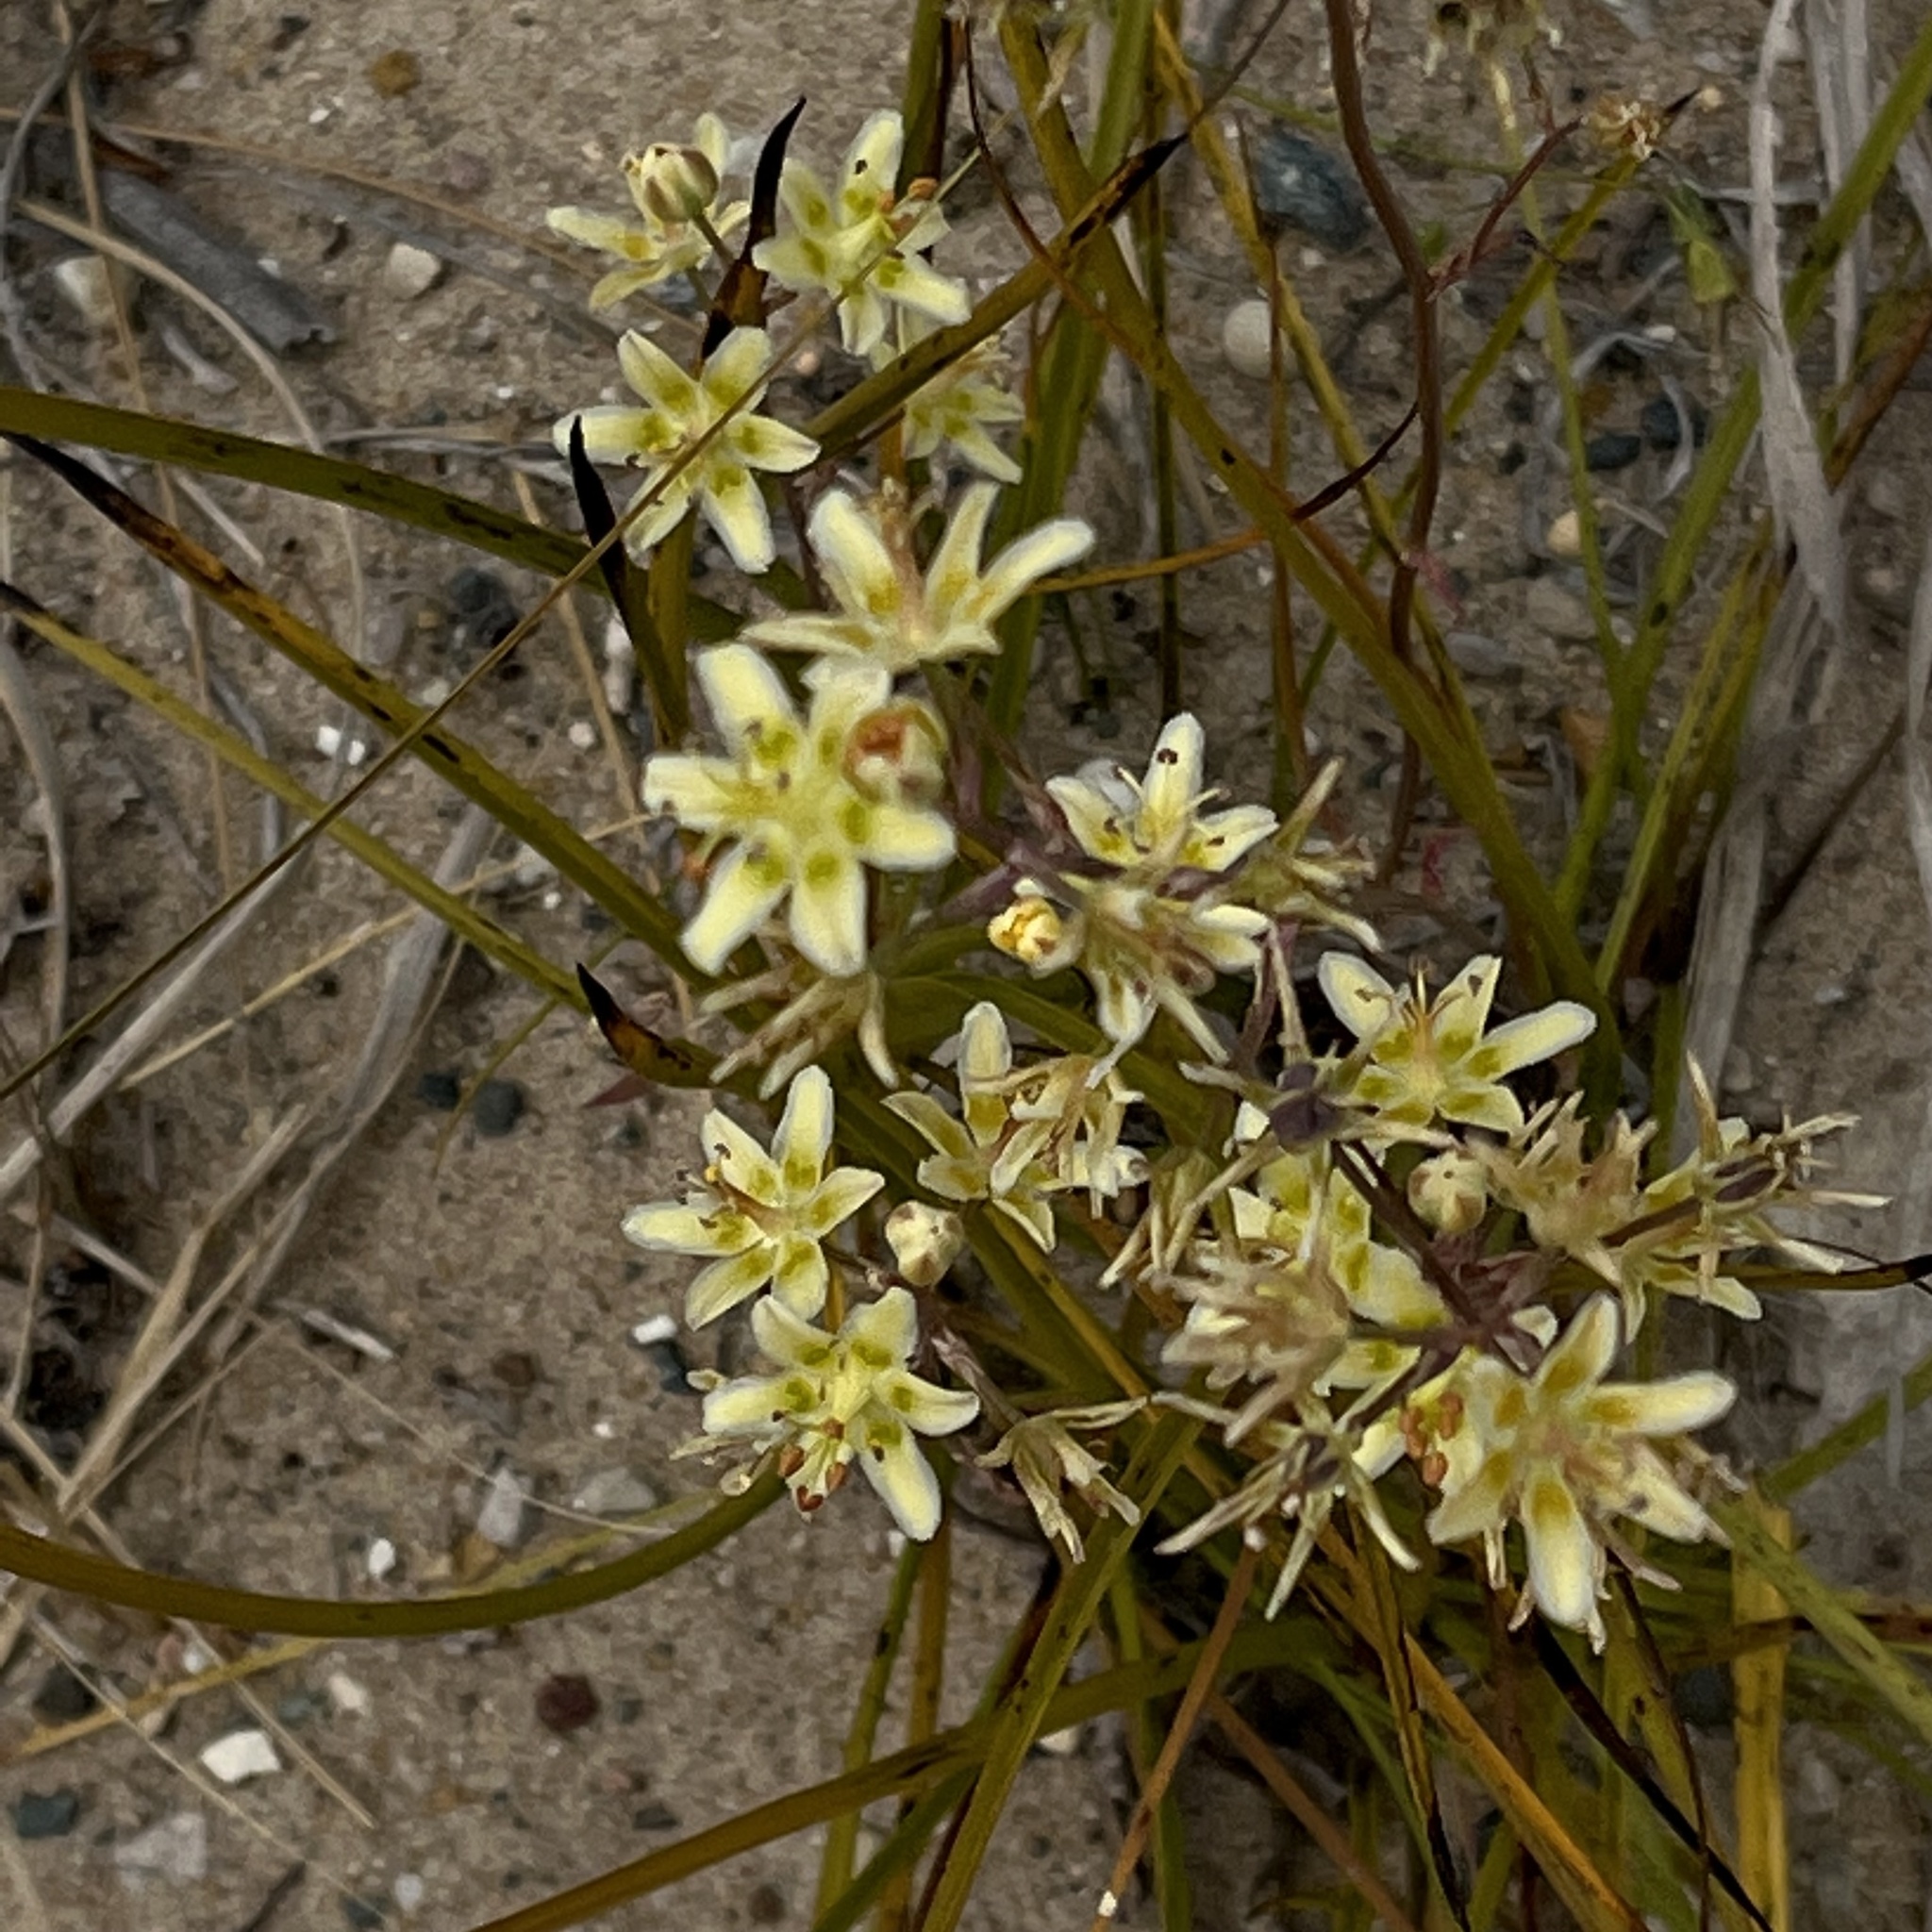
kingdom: Plantae
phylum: Tracheophyta
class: Liliopsida
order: Liliales
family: Melanthiaceae
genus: Anticlea
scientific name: Anticlea elegans
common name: Mountain death camas
